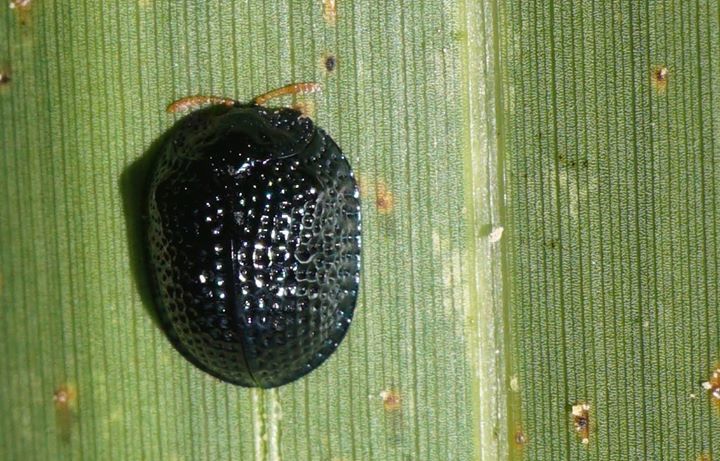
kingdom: Animalia
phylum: Arthropoda
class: Insecta
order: Coleoptera
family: Chrysomelidae
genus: Hemisphaerota
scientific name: Hemisphaerota cyanea
